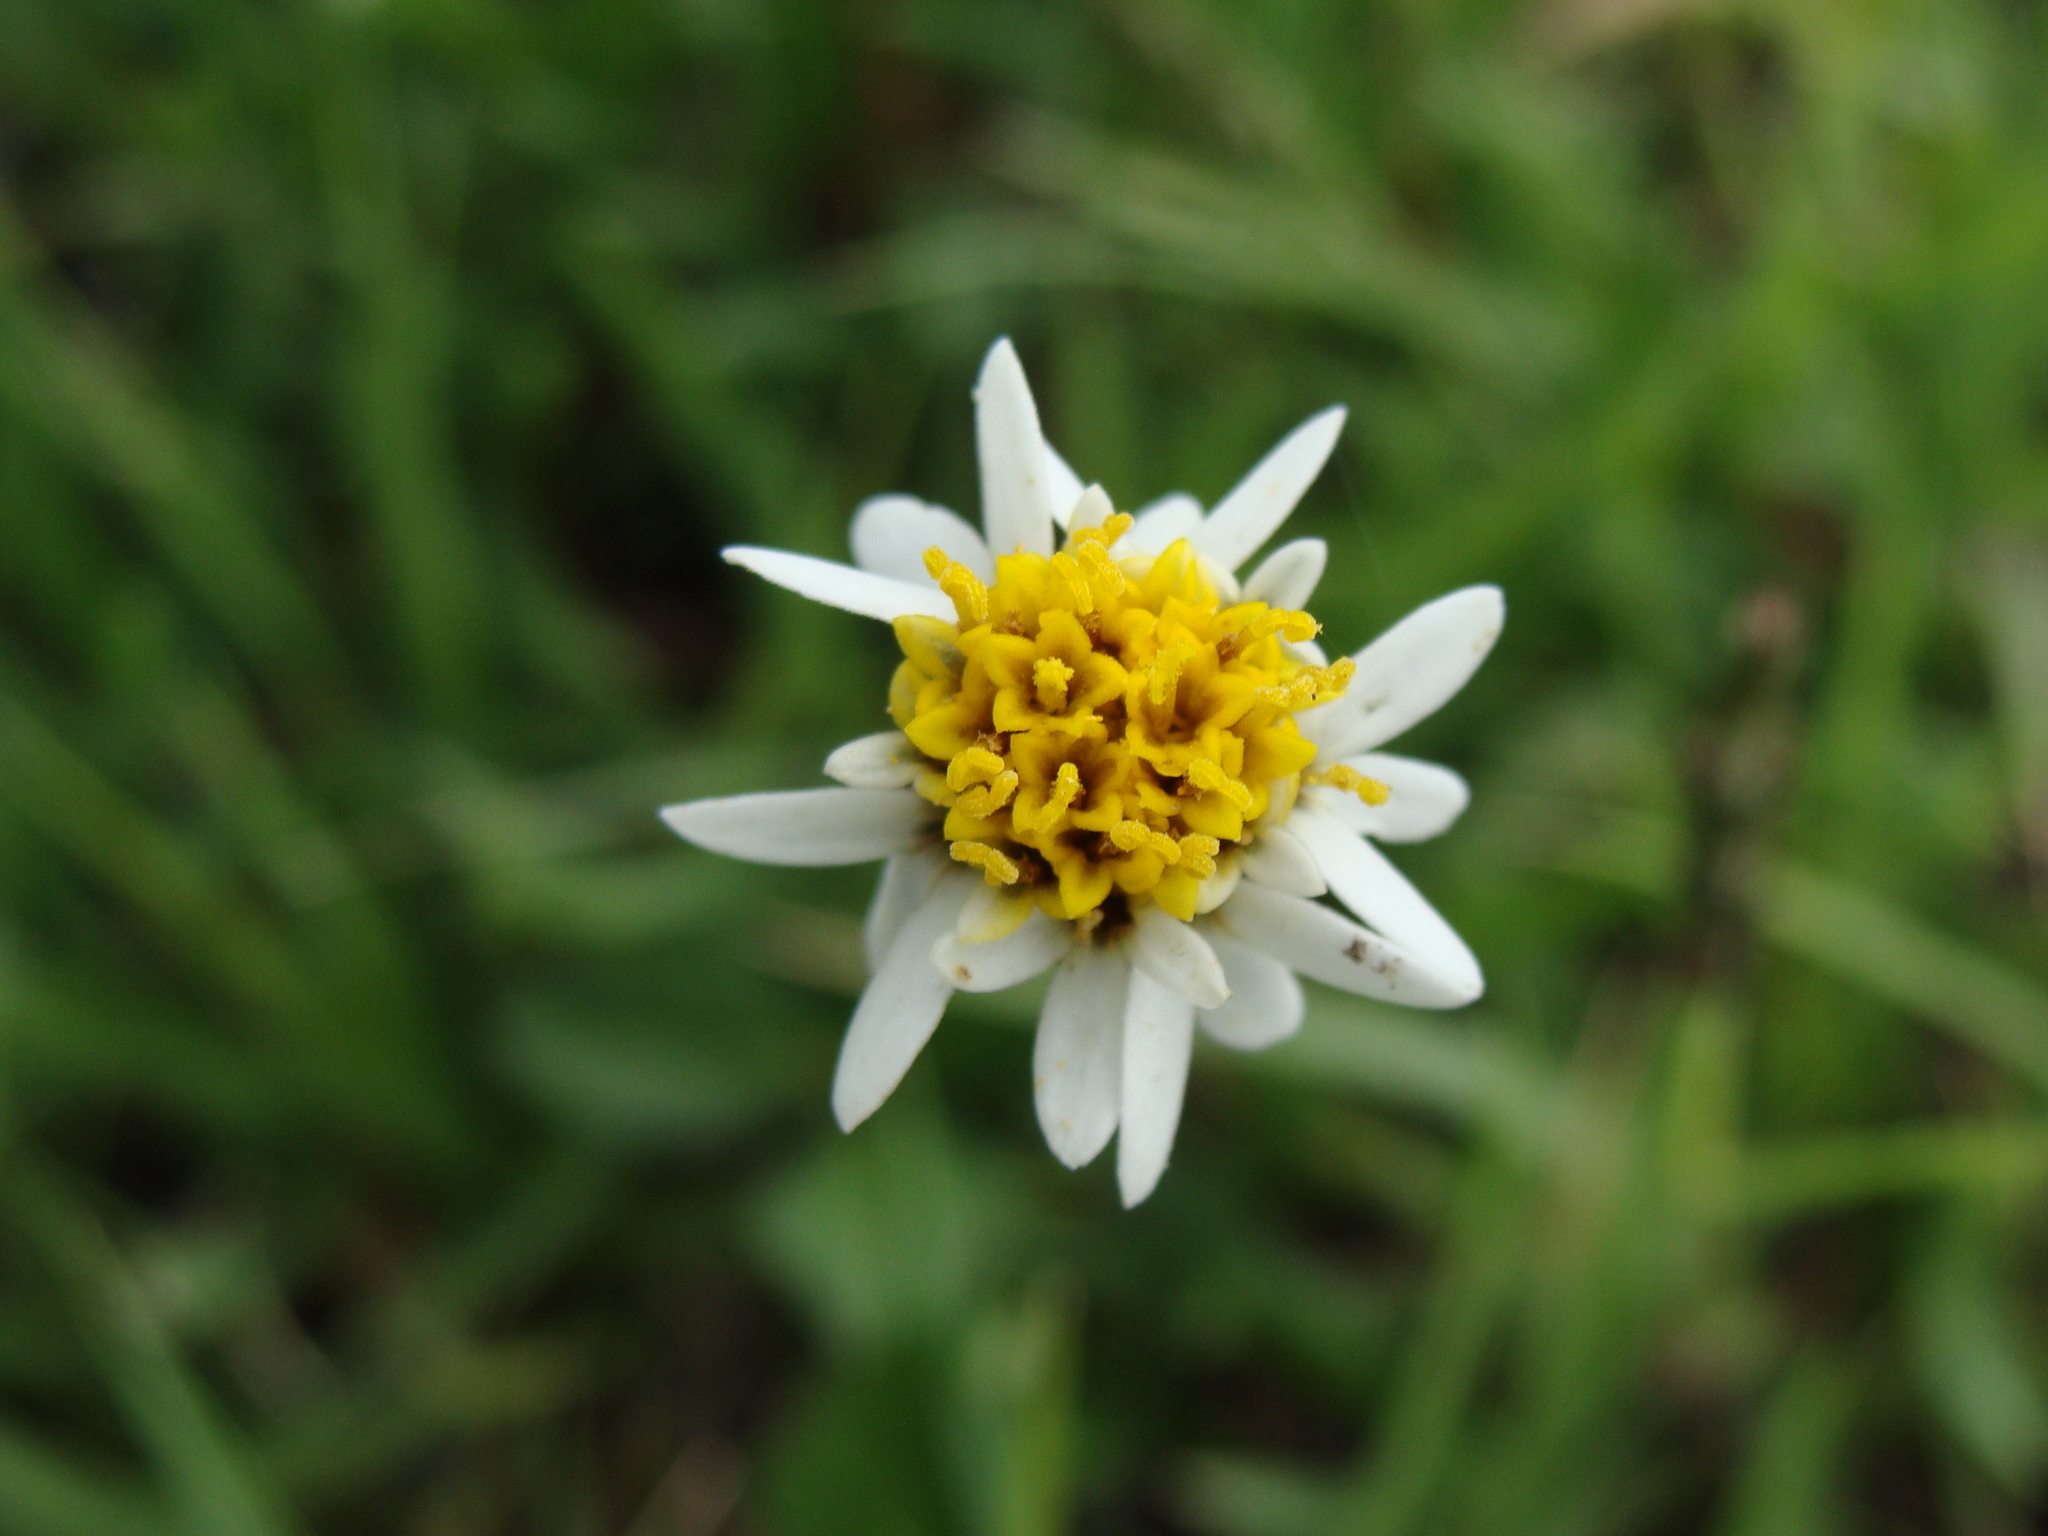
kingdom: Plantae
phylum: Tracheophyta
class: Magnoliopsida
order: Asterales
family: Asteraceae
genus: Tridax
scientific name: Tridax coronopifolia
